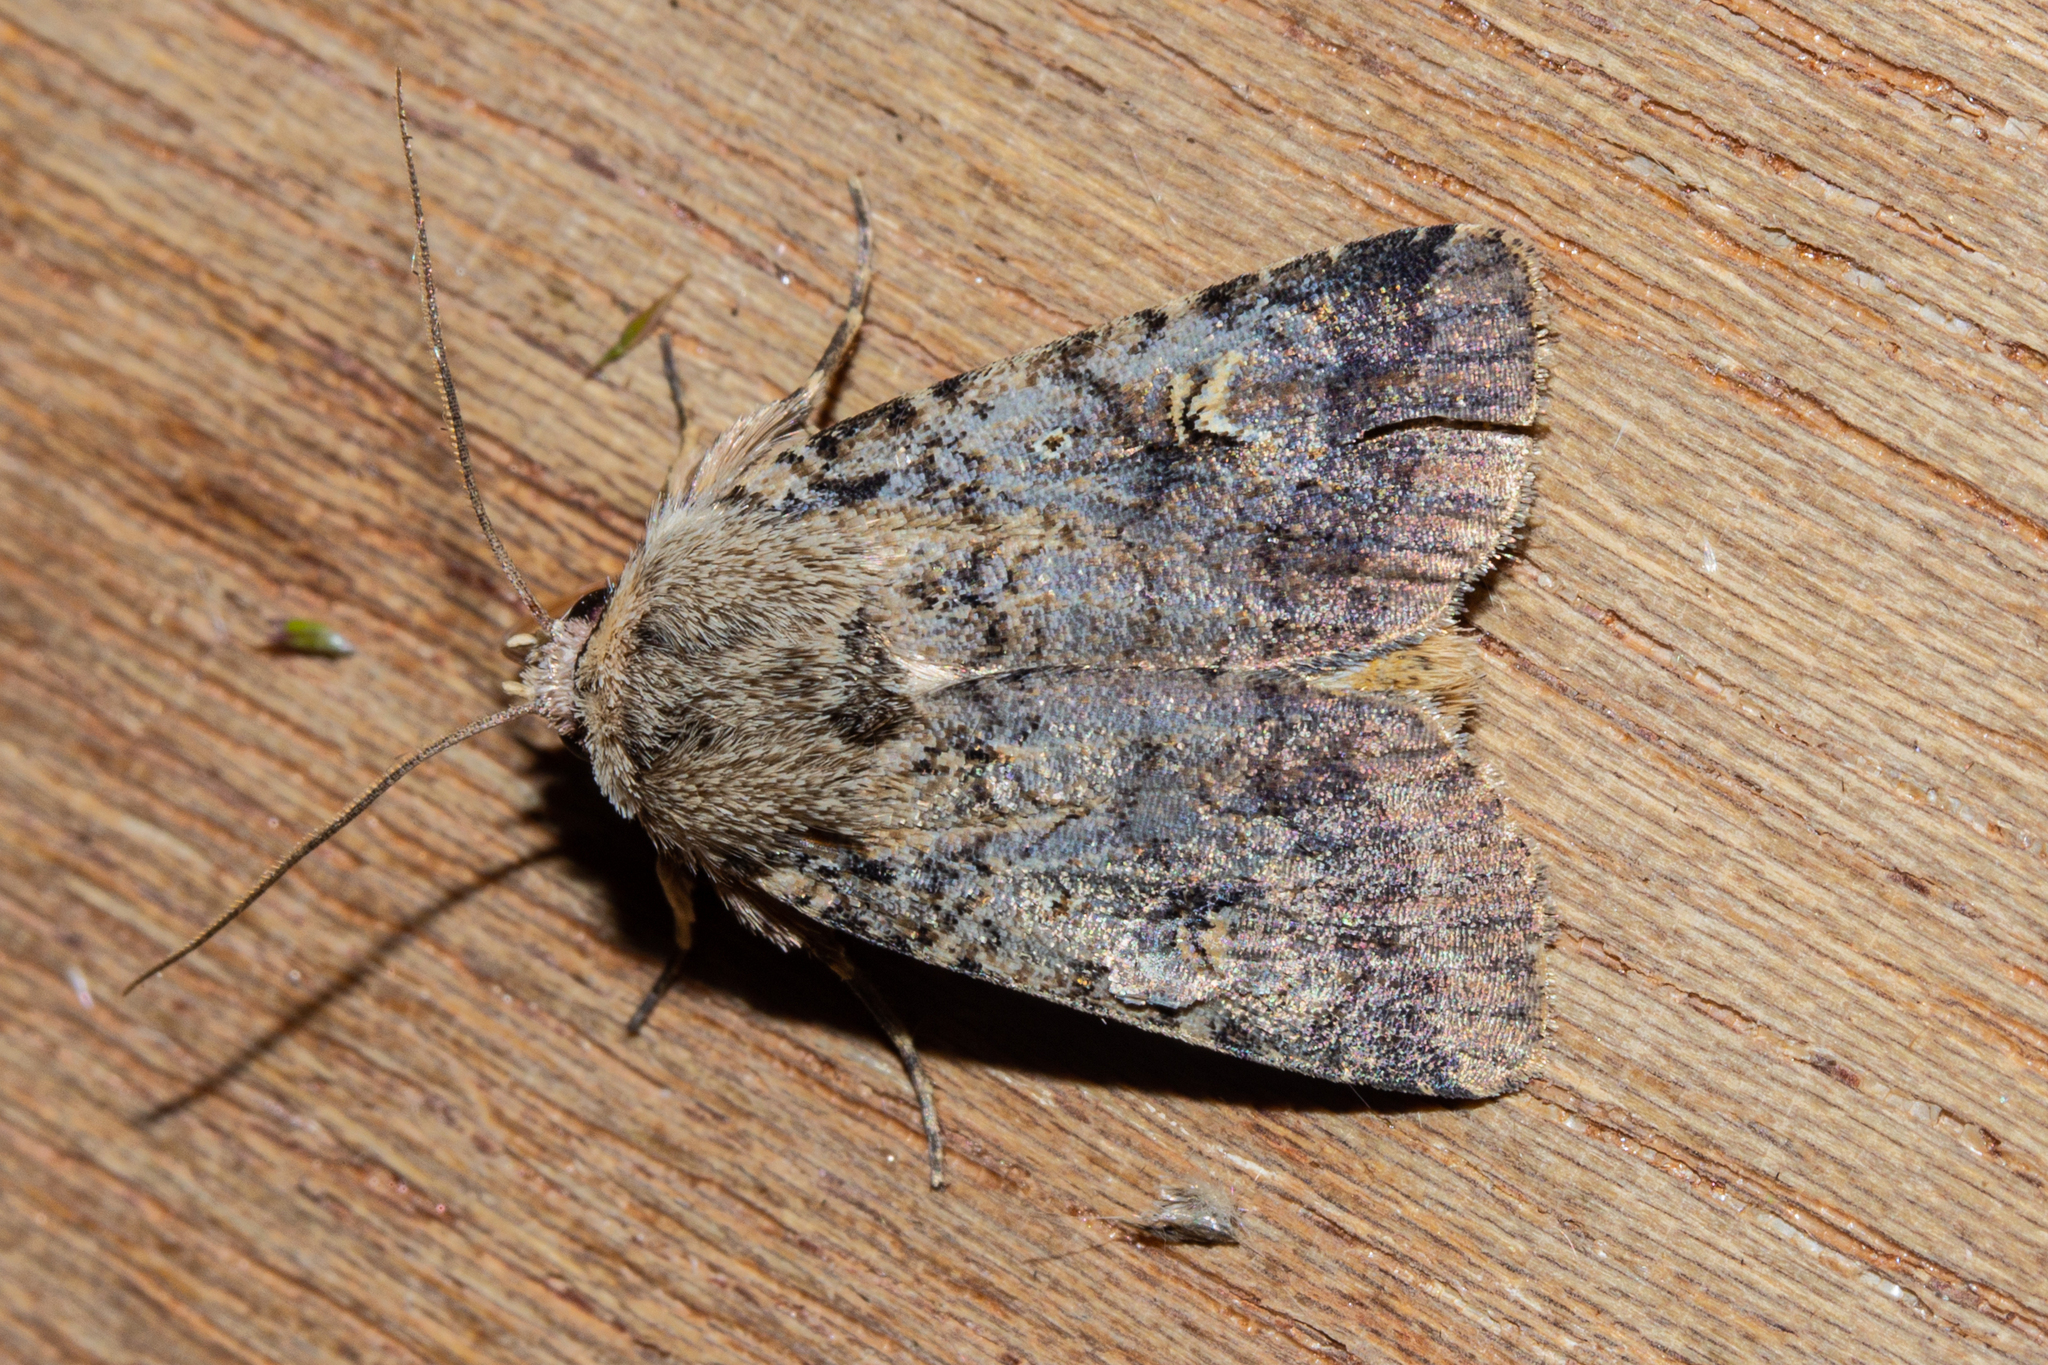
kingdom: Animalia
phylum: Arthropoda
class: Insecta
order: Lepidoptera
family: Noctuidae
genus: Proteuxoa
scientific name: Proteuxoa tetronycha
